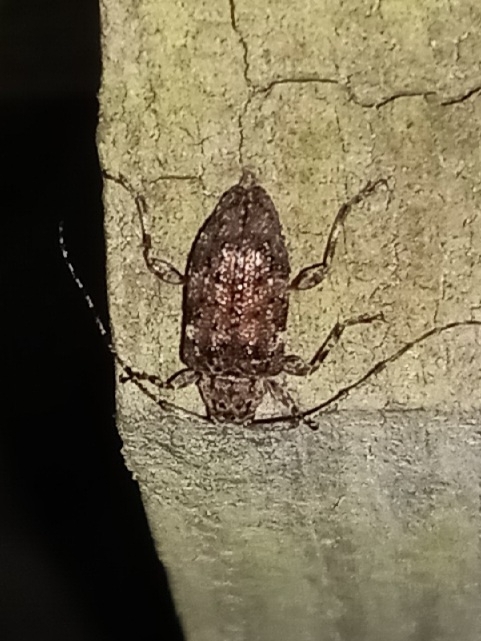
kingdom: Animalia
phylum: Arthropoda
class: Insecta
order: Coleoptera
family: Cerambycidae
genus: Astylopsis
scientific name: Astylopsis sexguttata
